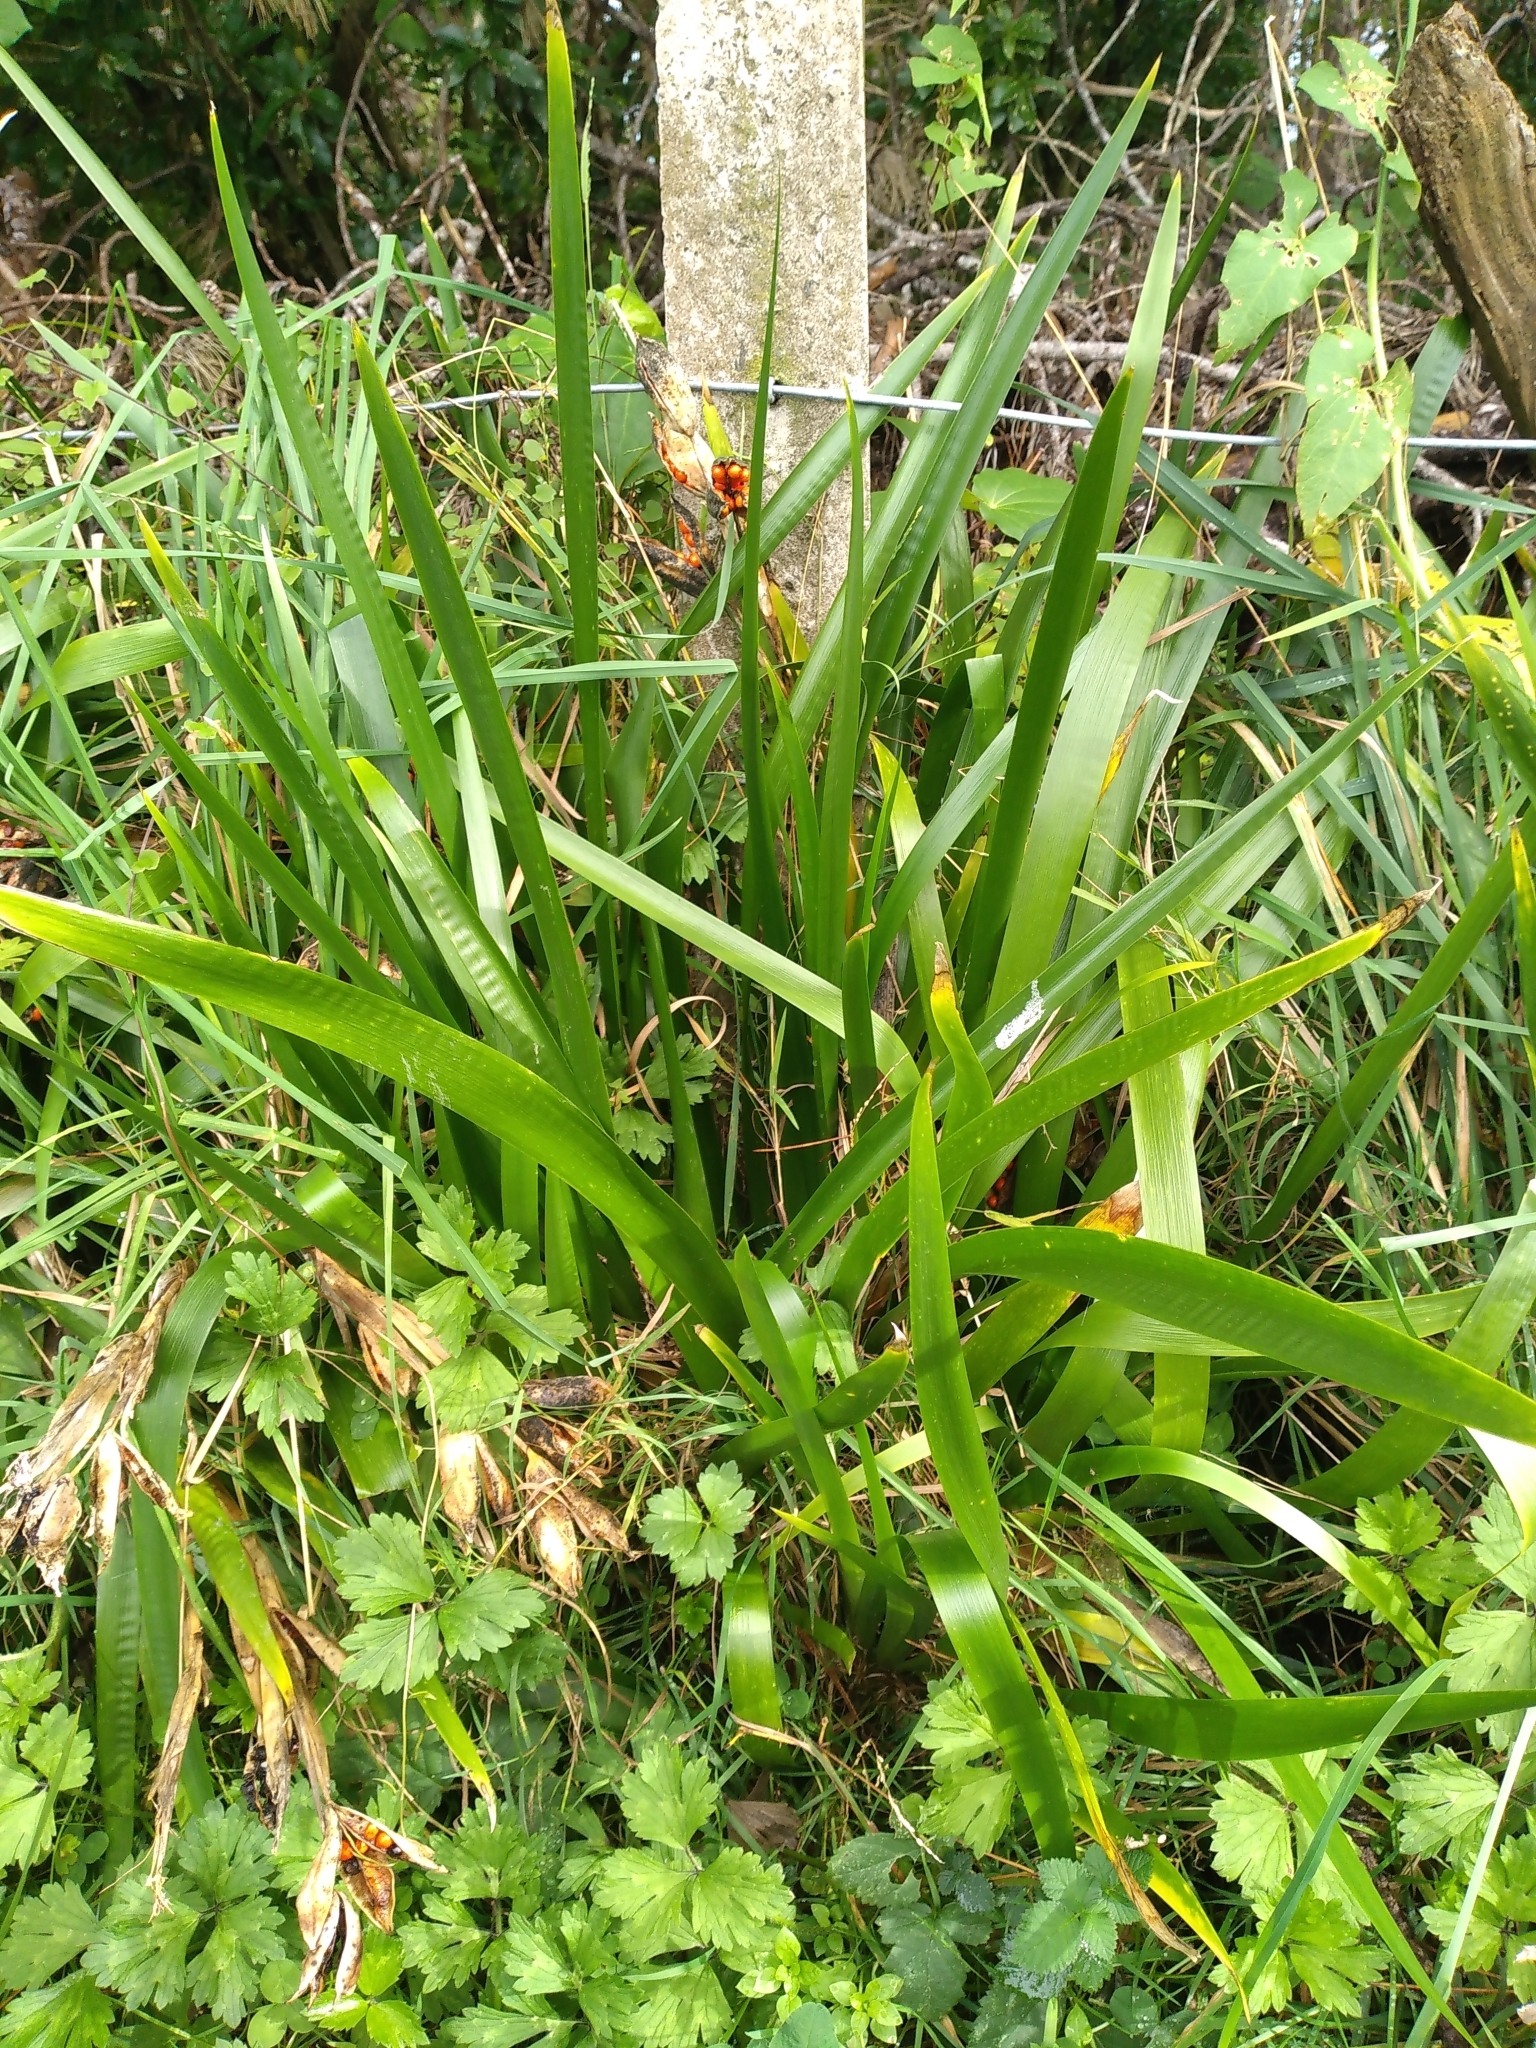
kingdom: Plantae
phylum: Tracheophyta
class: Liliopsida
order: Asparagales
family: Iridaceae
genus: Iris
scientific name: Iris foetidissima
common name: Stinking iris
